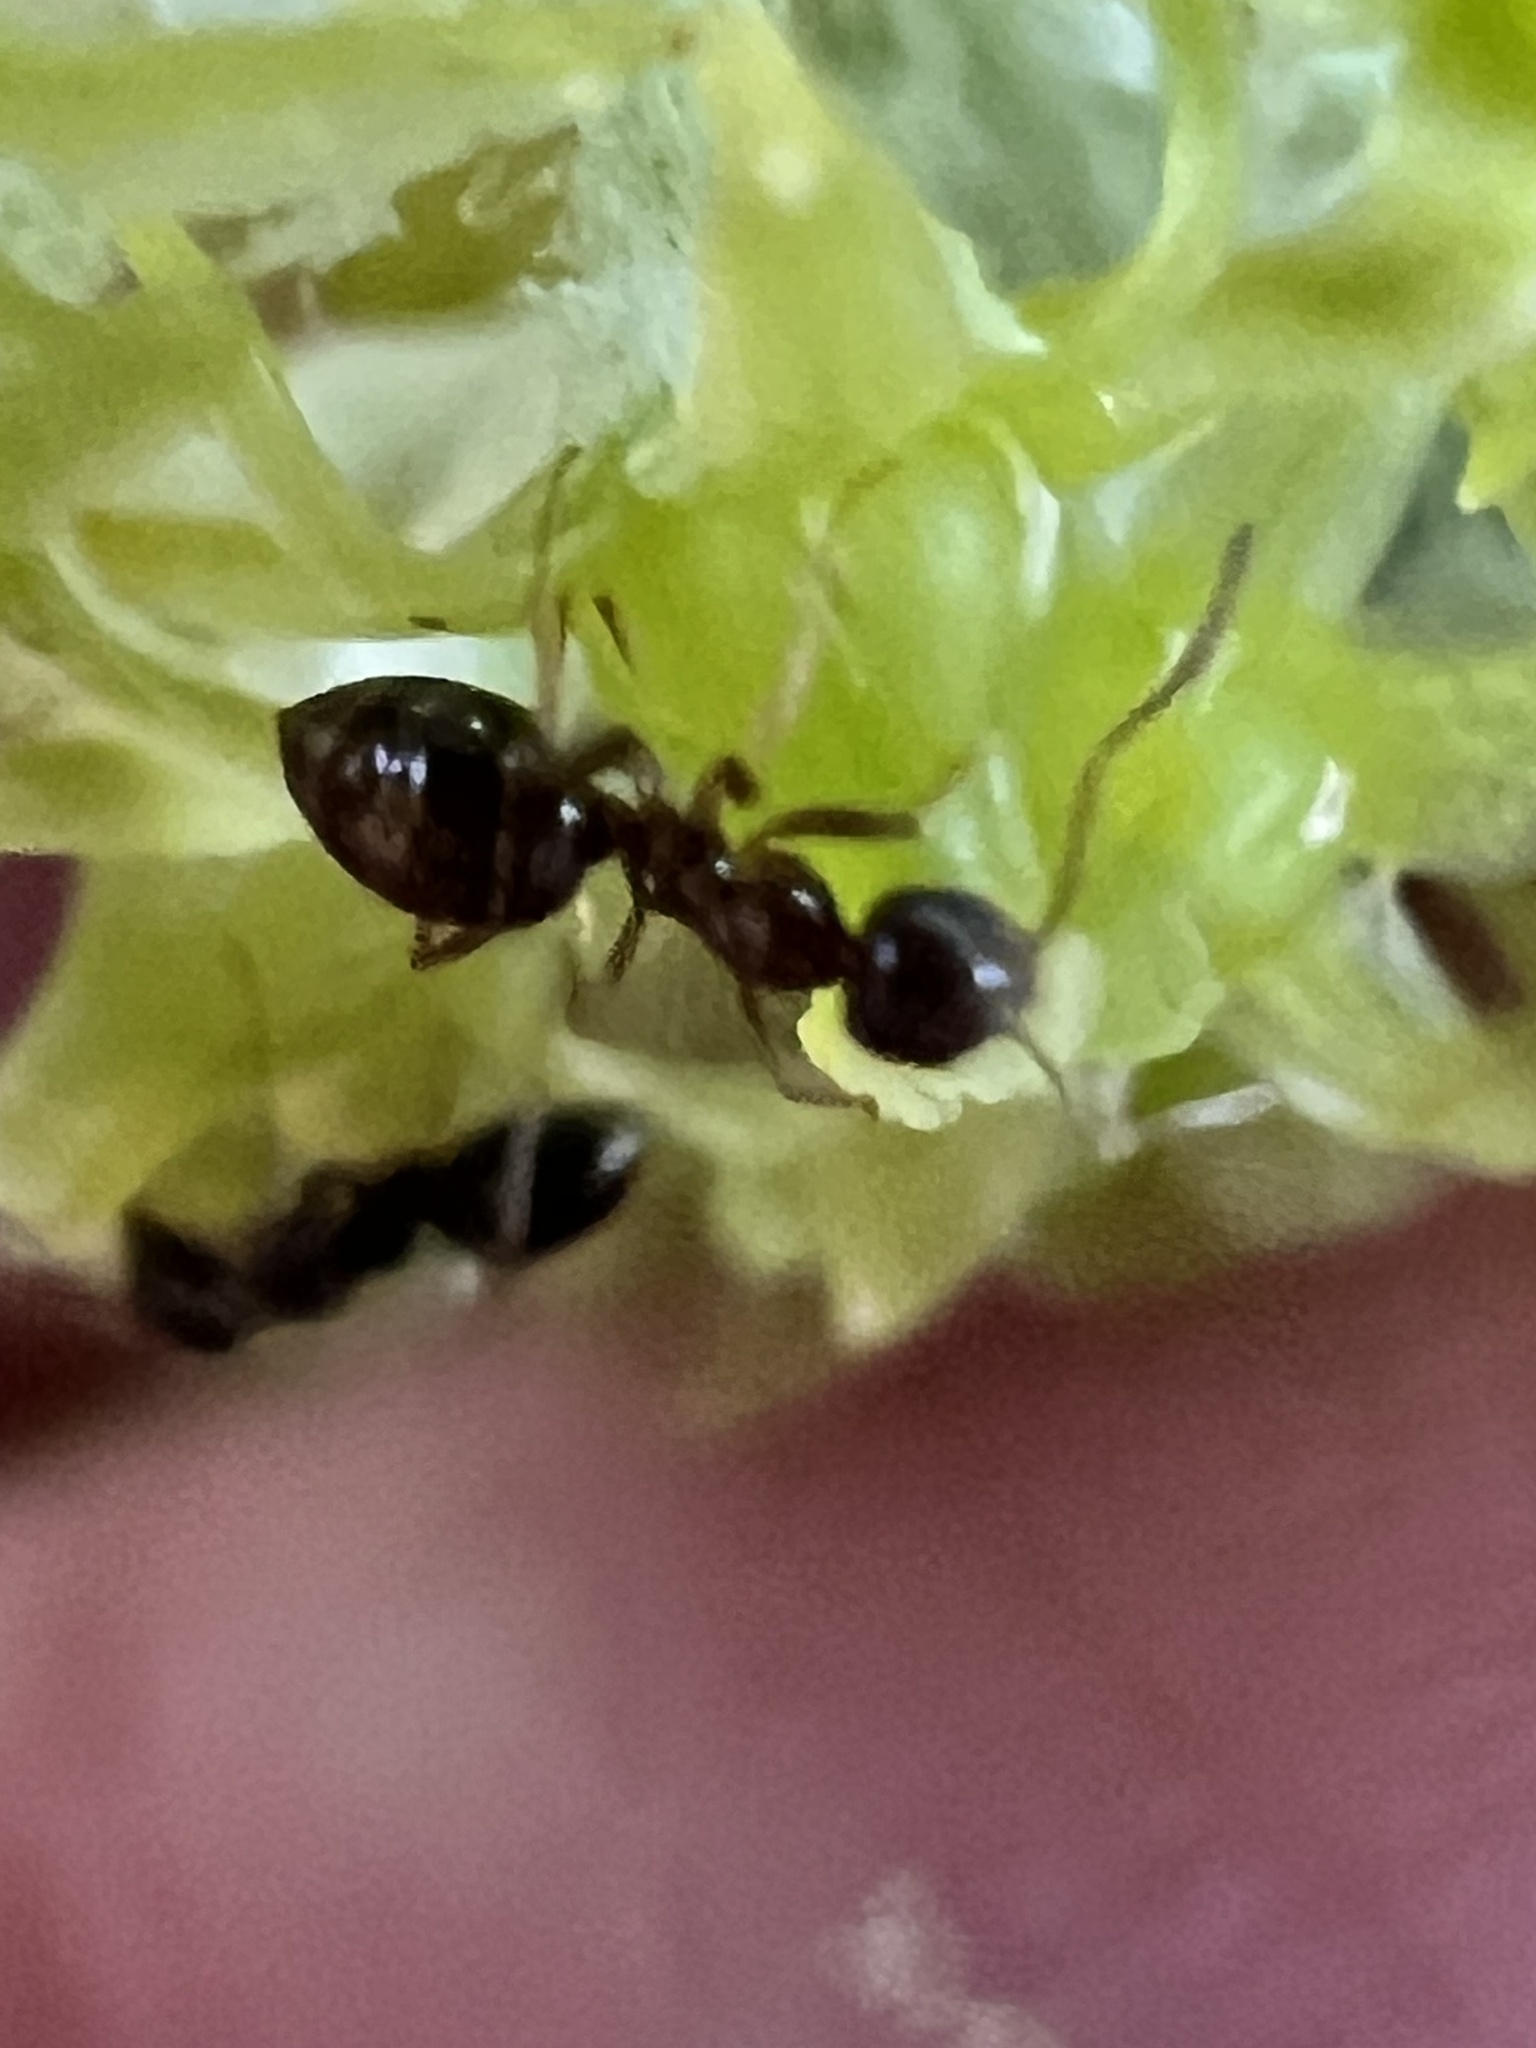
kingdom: Animalia
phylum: Arthropoda
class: Insecta
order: Hymenoptera
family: Formicidae
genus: Prolasius
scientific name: Prolasius advenus
